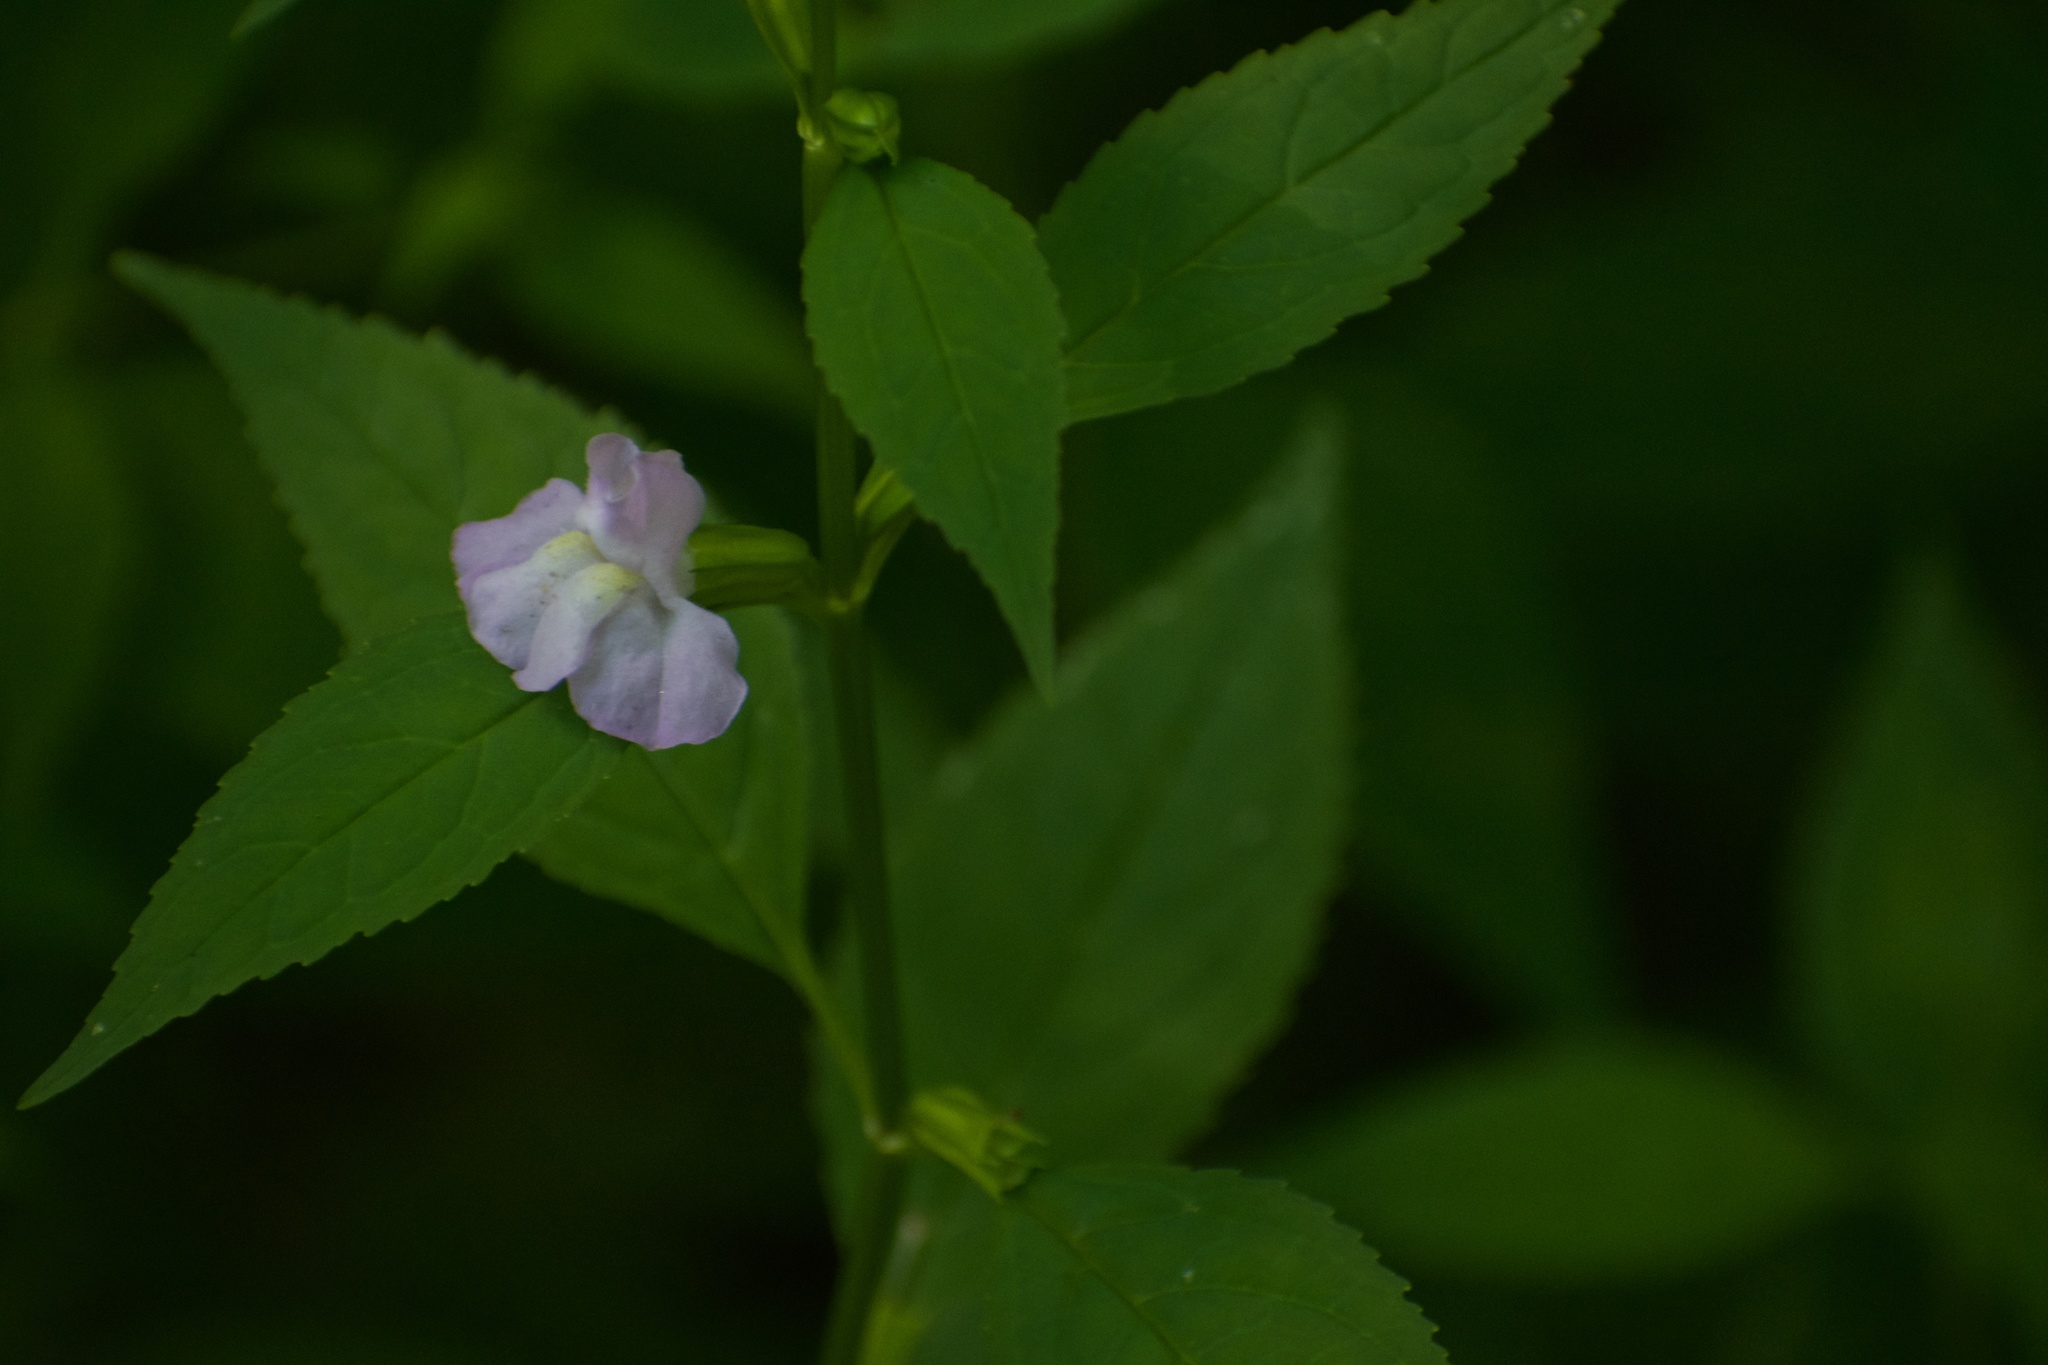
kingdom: Plantae
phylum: Tracheophyta
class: Magnoliopsida
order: Lamiales
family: Phrymaceae
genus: Mimulus
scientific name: Mimulus alatus
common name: Sharp-wing monkey-flower
